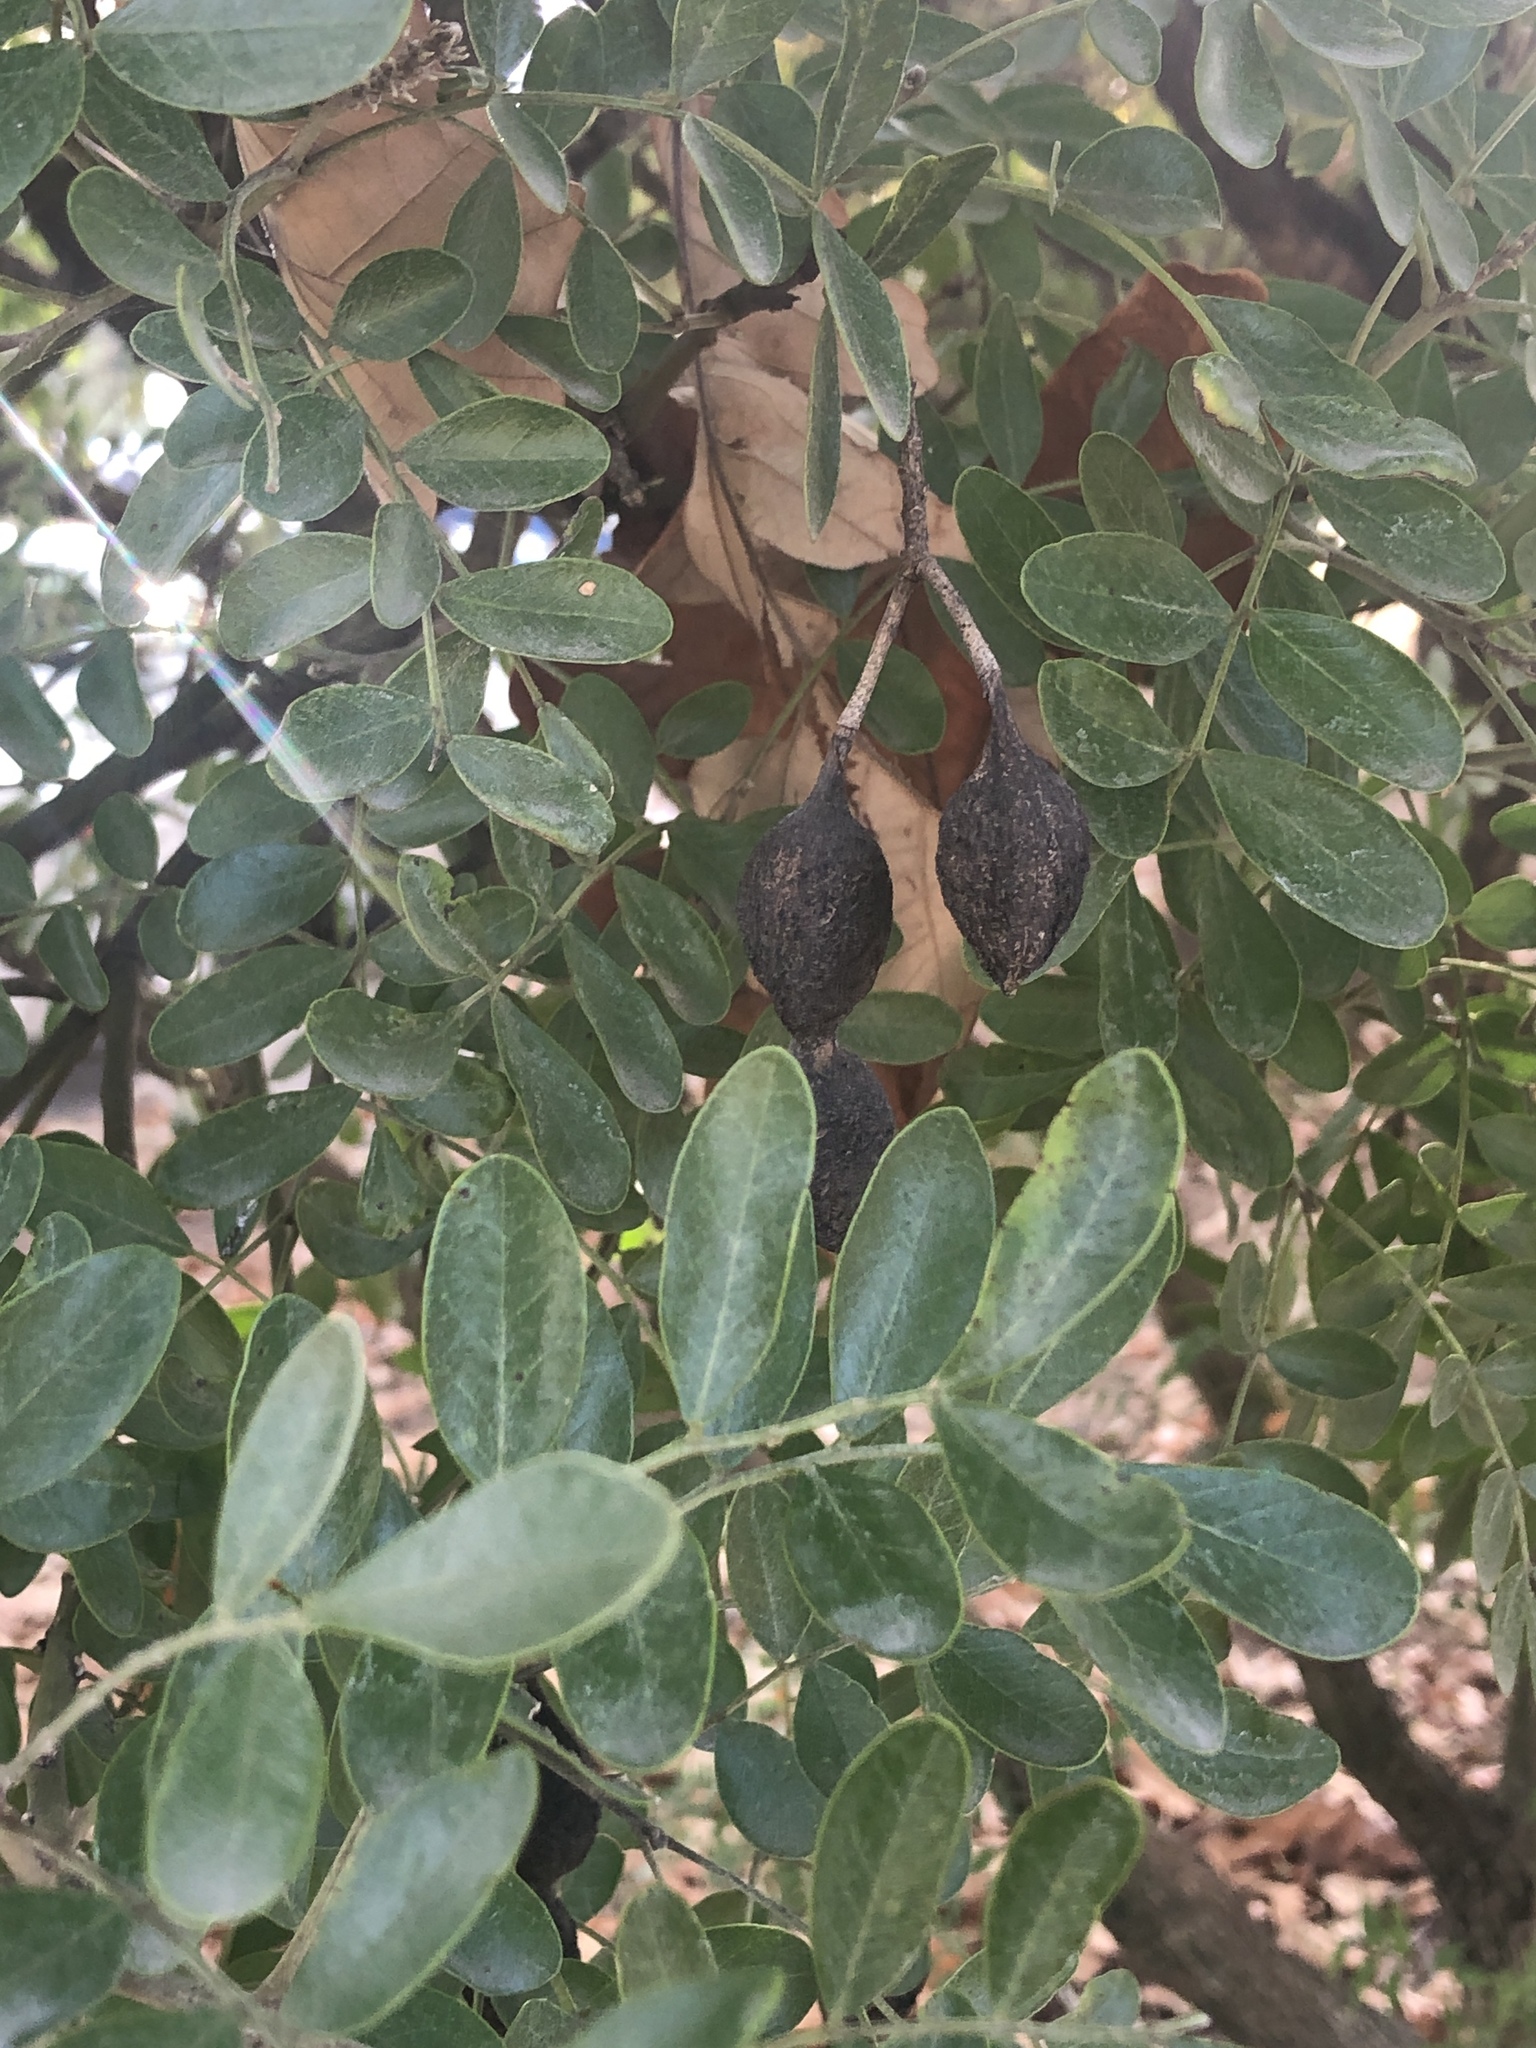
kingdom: Plantae
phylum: Tracheophyta
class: Magnoliopsida
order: Fabales
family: Fabaceae
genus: Dermatophyllum
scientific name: Dermatophyllum secundiflorum
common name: Texas-mountain-laurel
